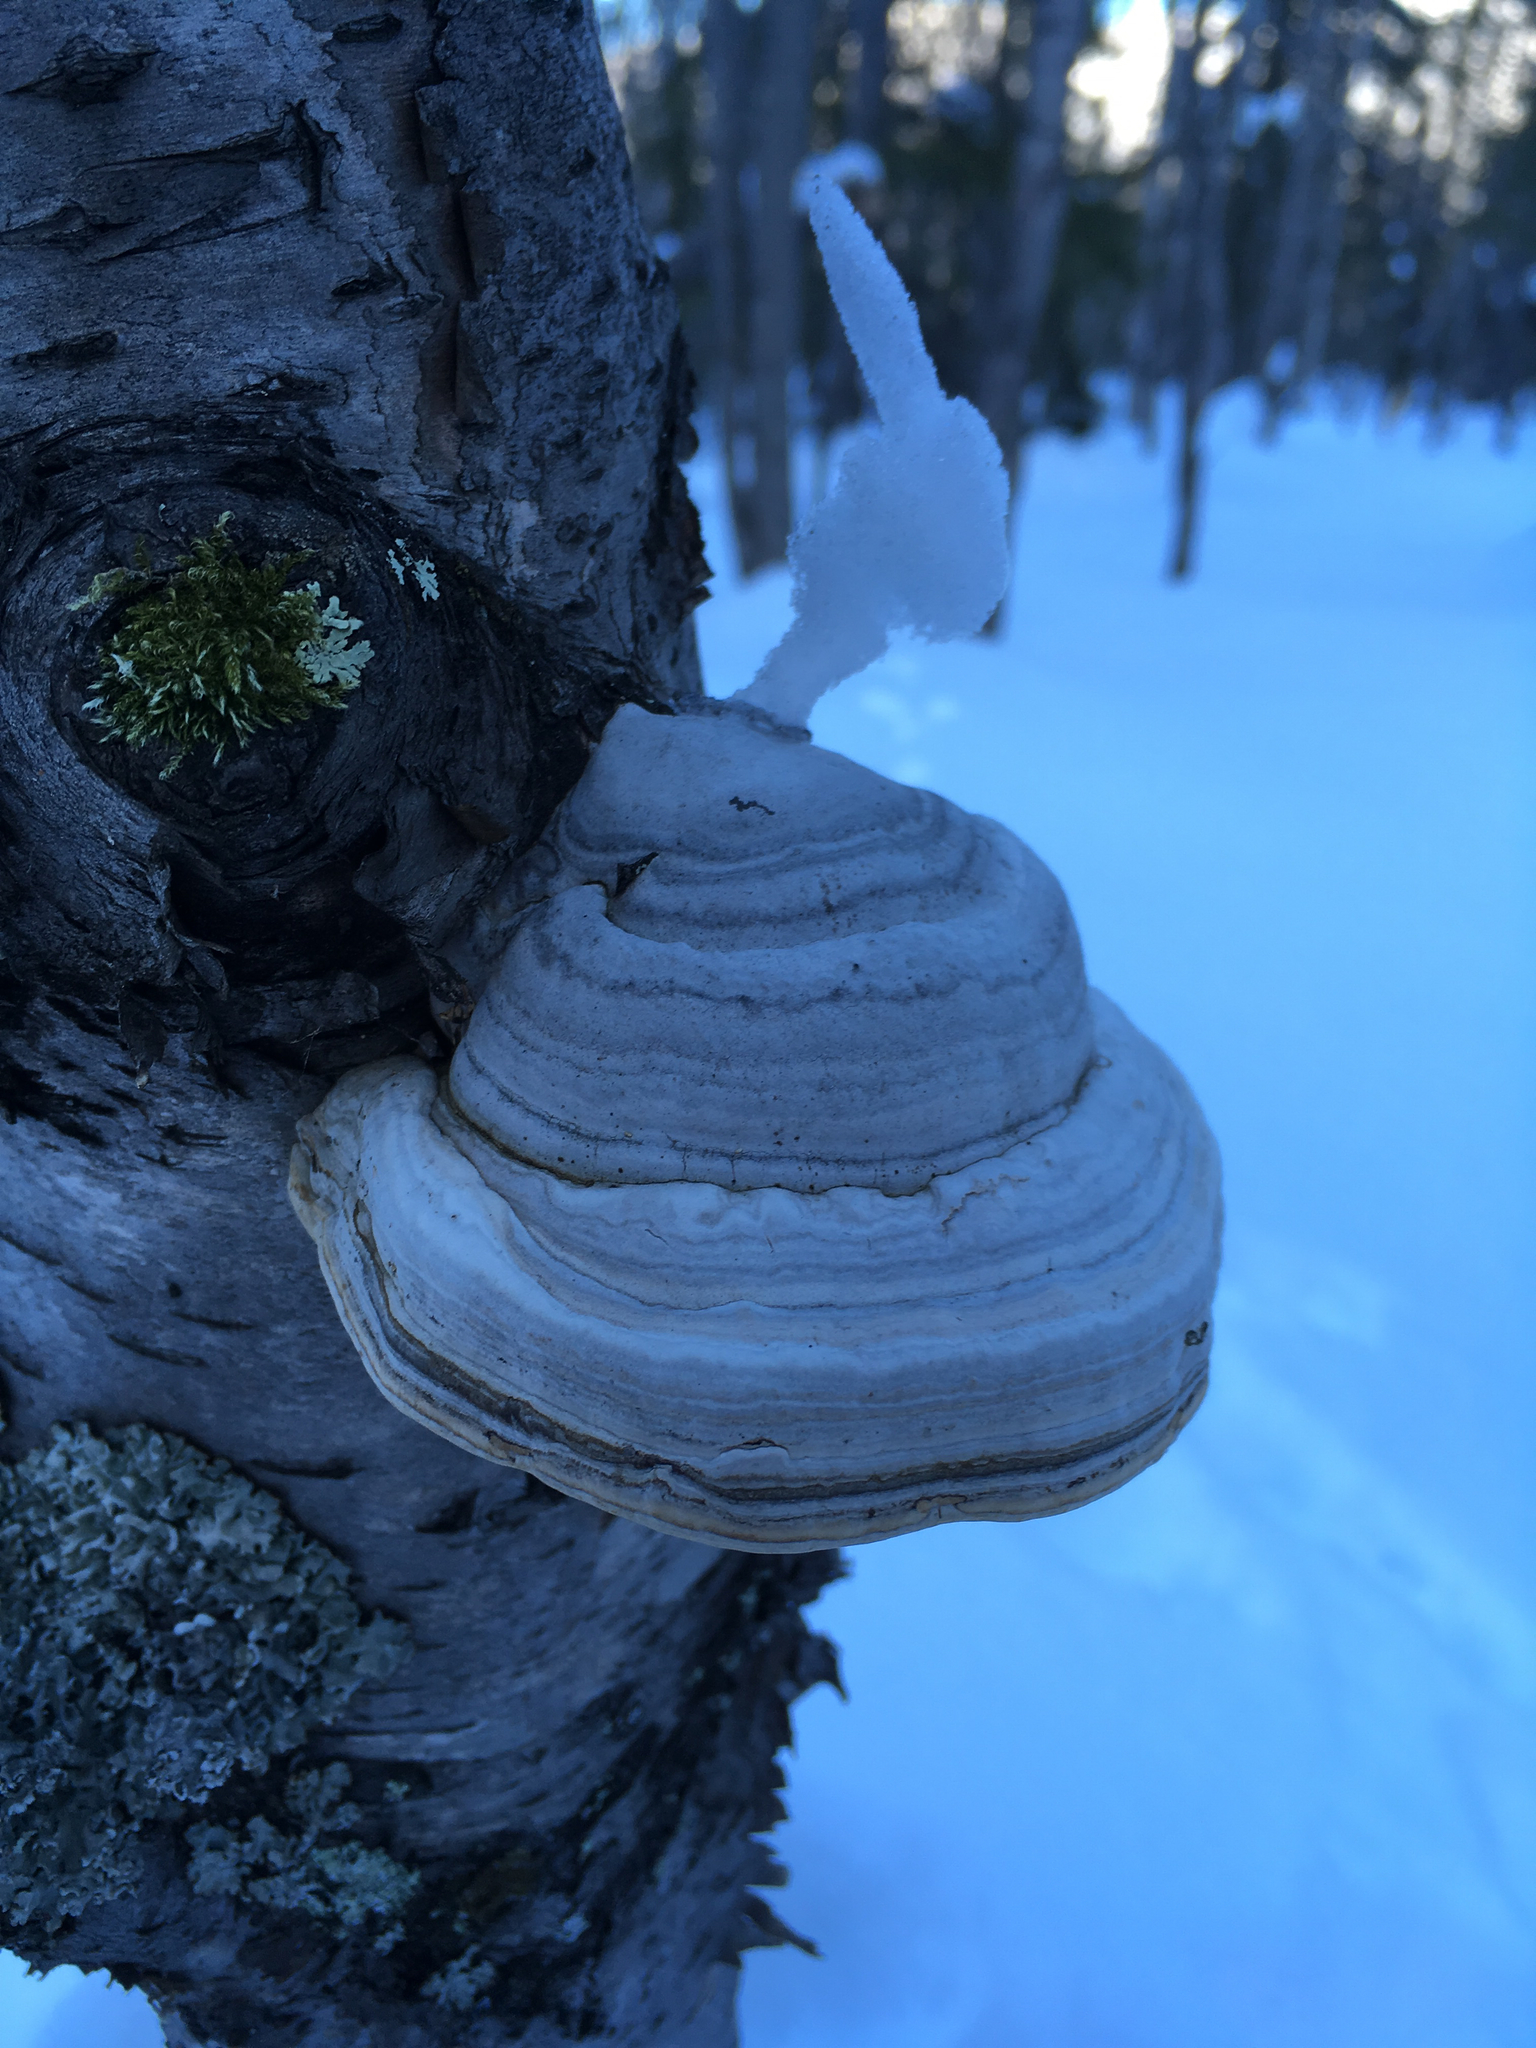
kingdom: Fungi
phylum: Basidiomycota
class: Agaricomycetes
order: Polyporales
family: Polyporaceae
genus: Fomes
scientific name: Fomes fomentarius
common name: Hoof fungus
